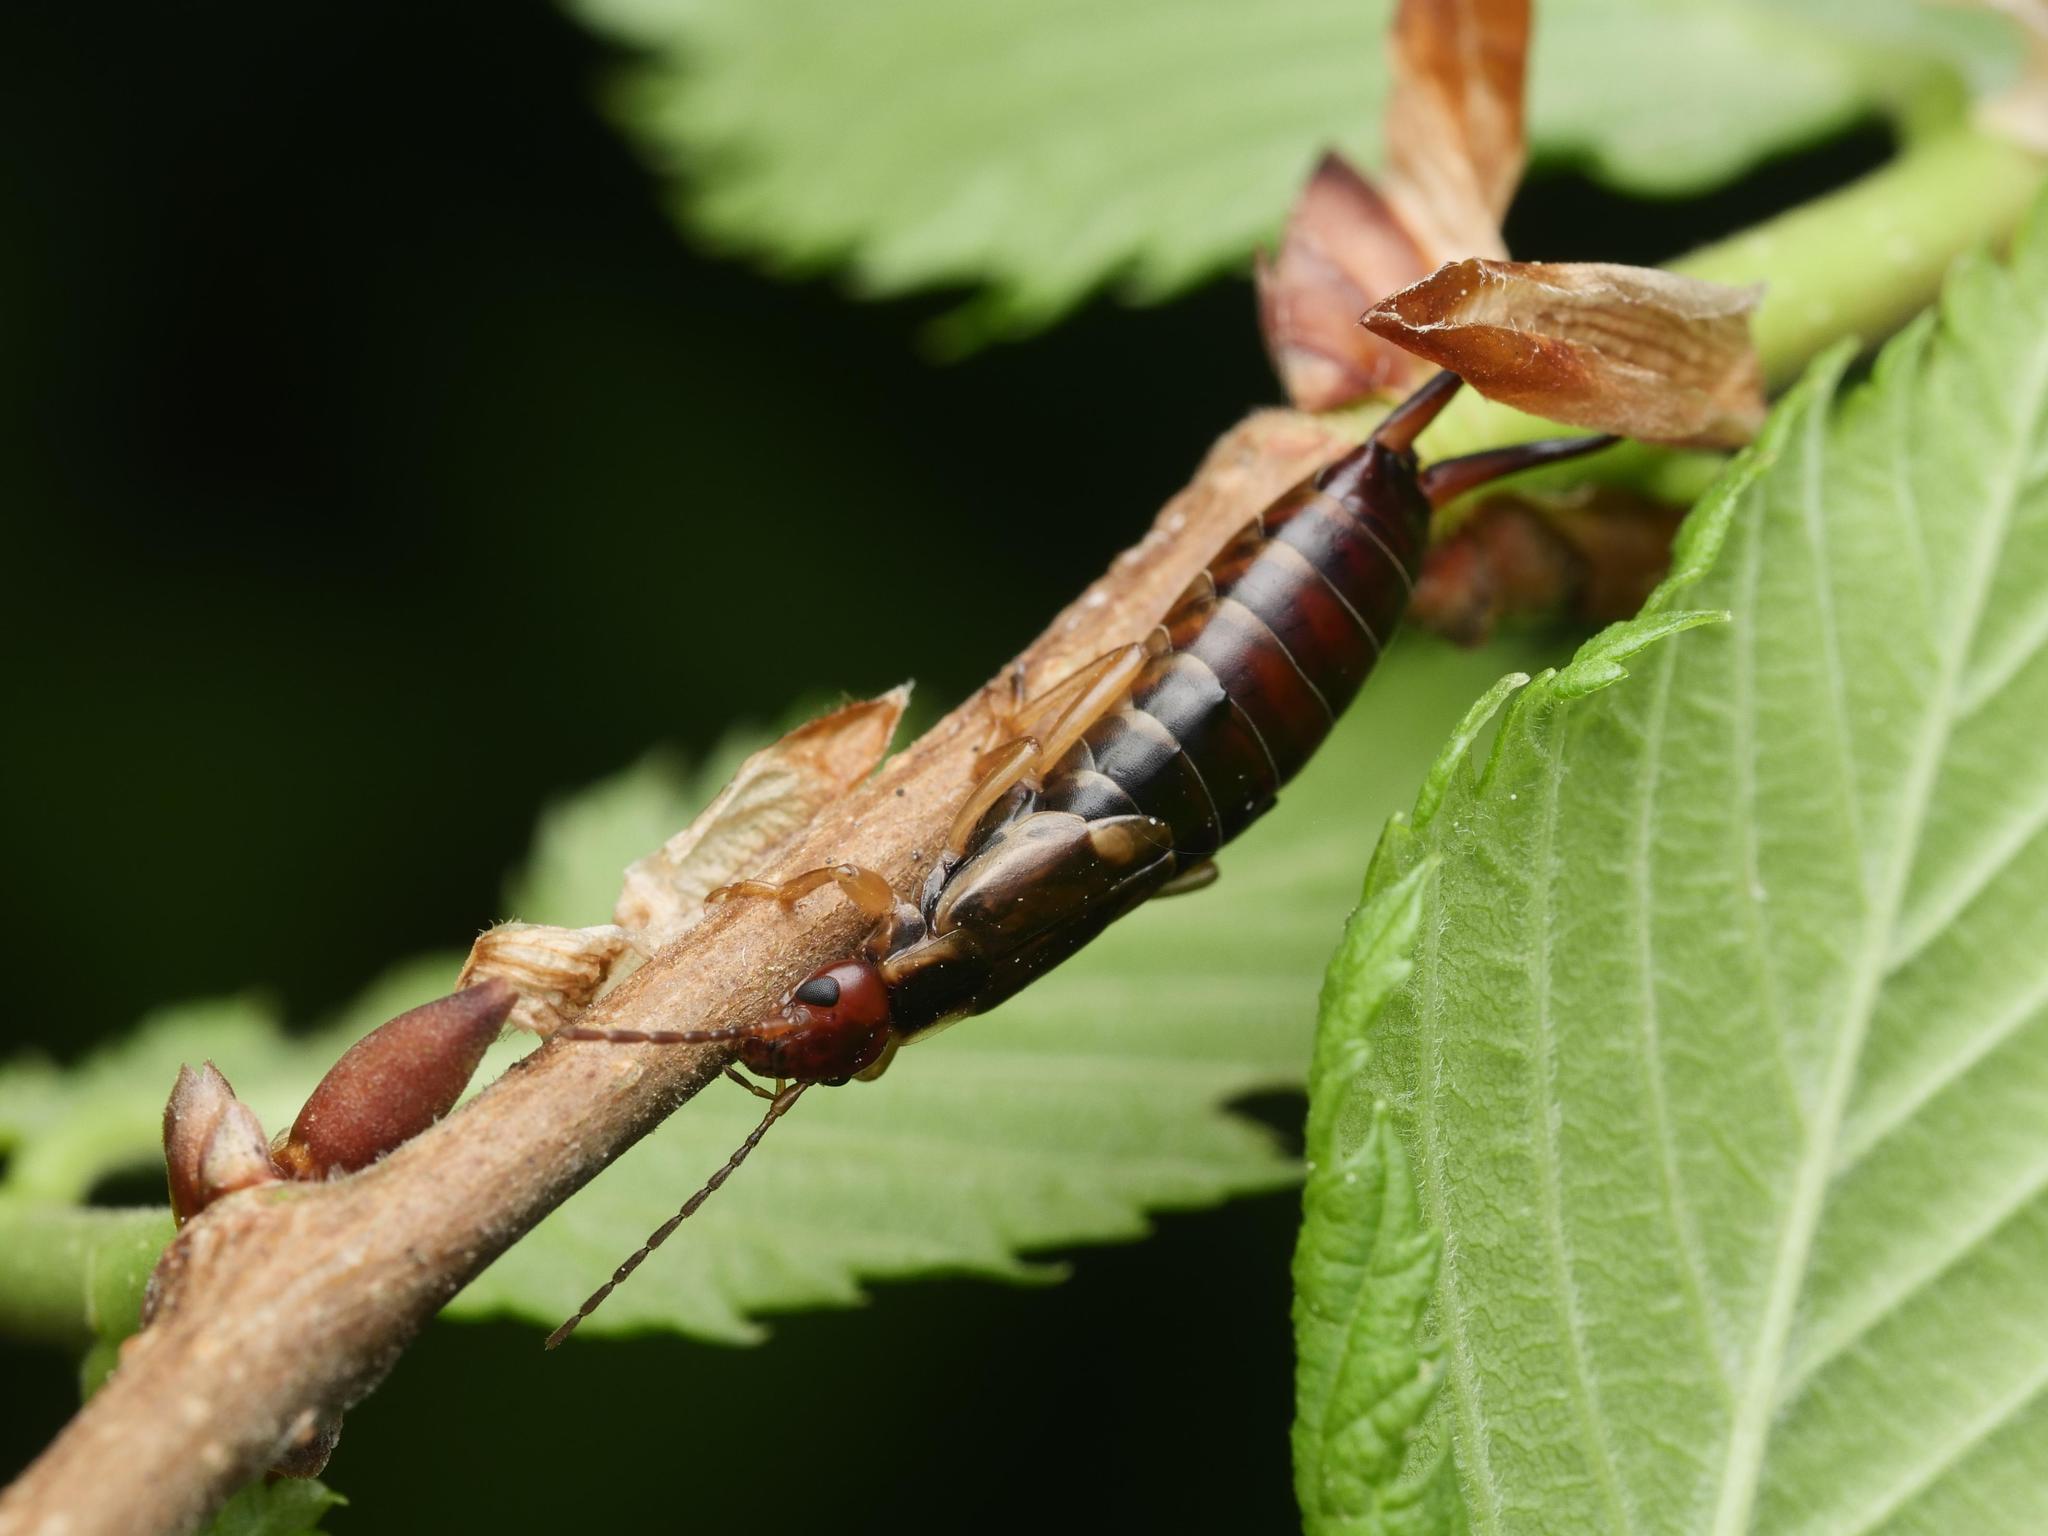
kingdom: Animalia
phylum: Arthropoda
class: Insecta
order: Dermaptera
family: Forficulidae
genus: Forficula
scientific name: Forficula
